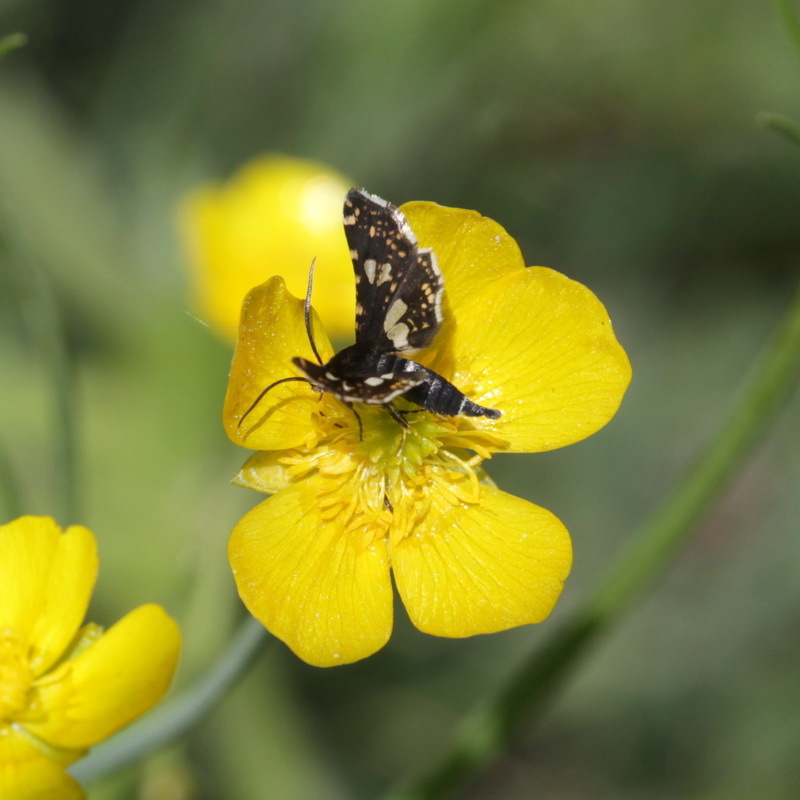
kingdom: Animalia
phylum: Arthropoda
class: Insecta
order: Lepidoptera
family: Thyrididae
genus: Thyris
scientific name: Thyris fenestrella
